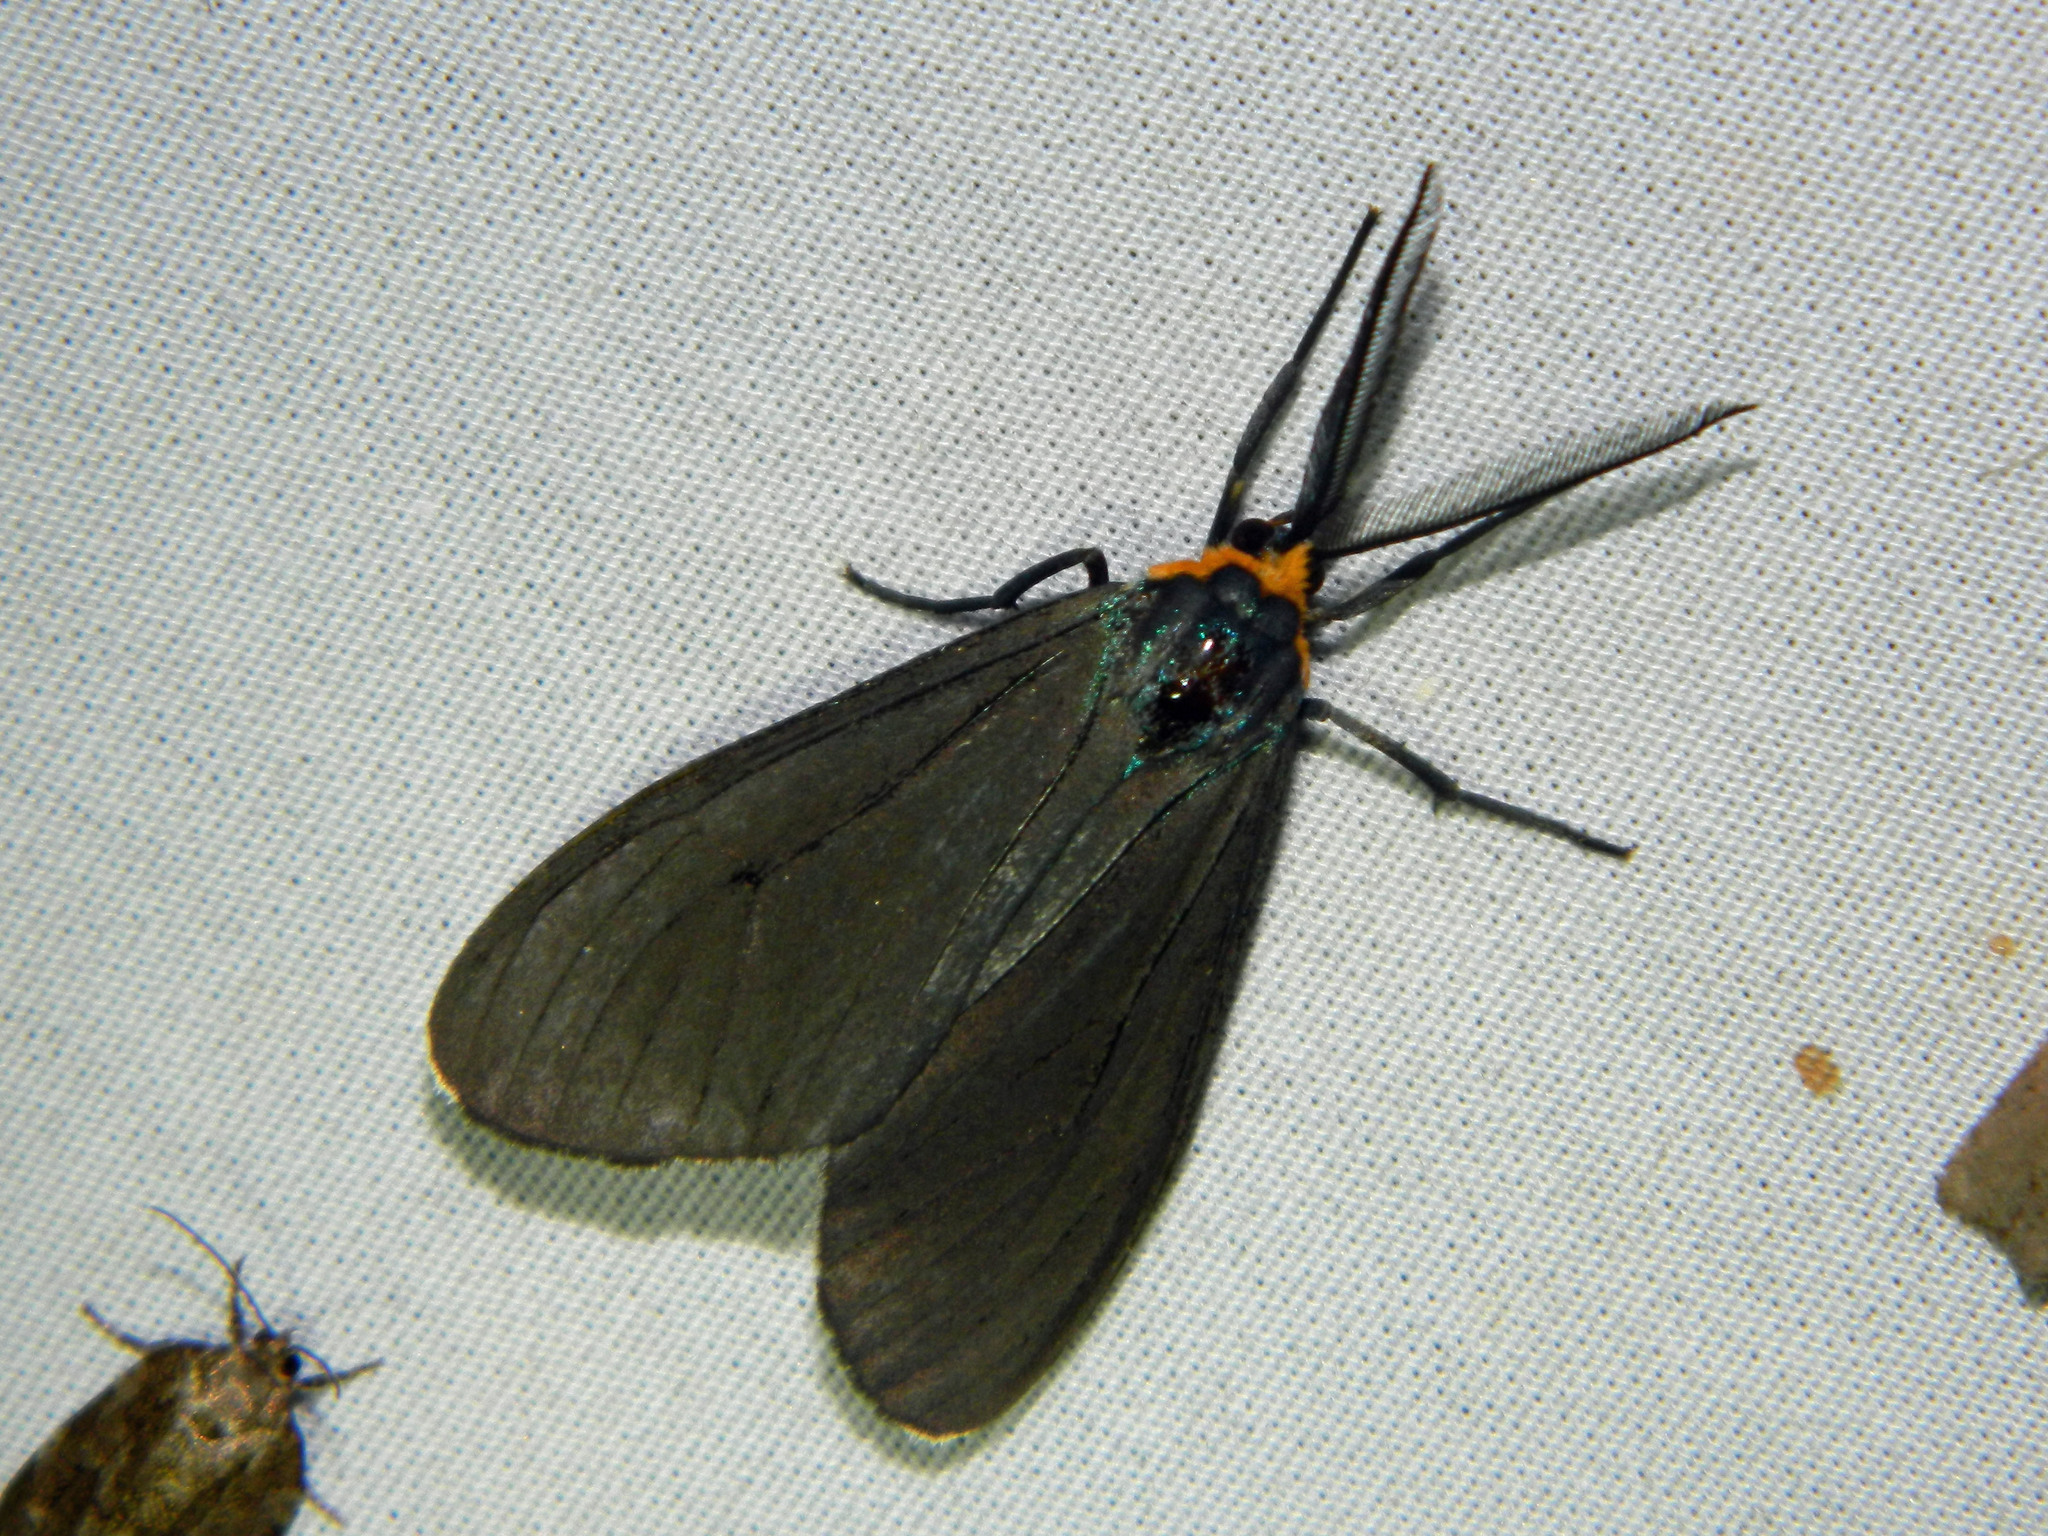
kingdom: Animalia
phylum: Arthropoda
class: Insecta
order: Lepidoptera
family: Erebidae
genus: Ctenucha
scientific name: Ctenucha virginica
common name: Virginia ctenucha moth
